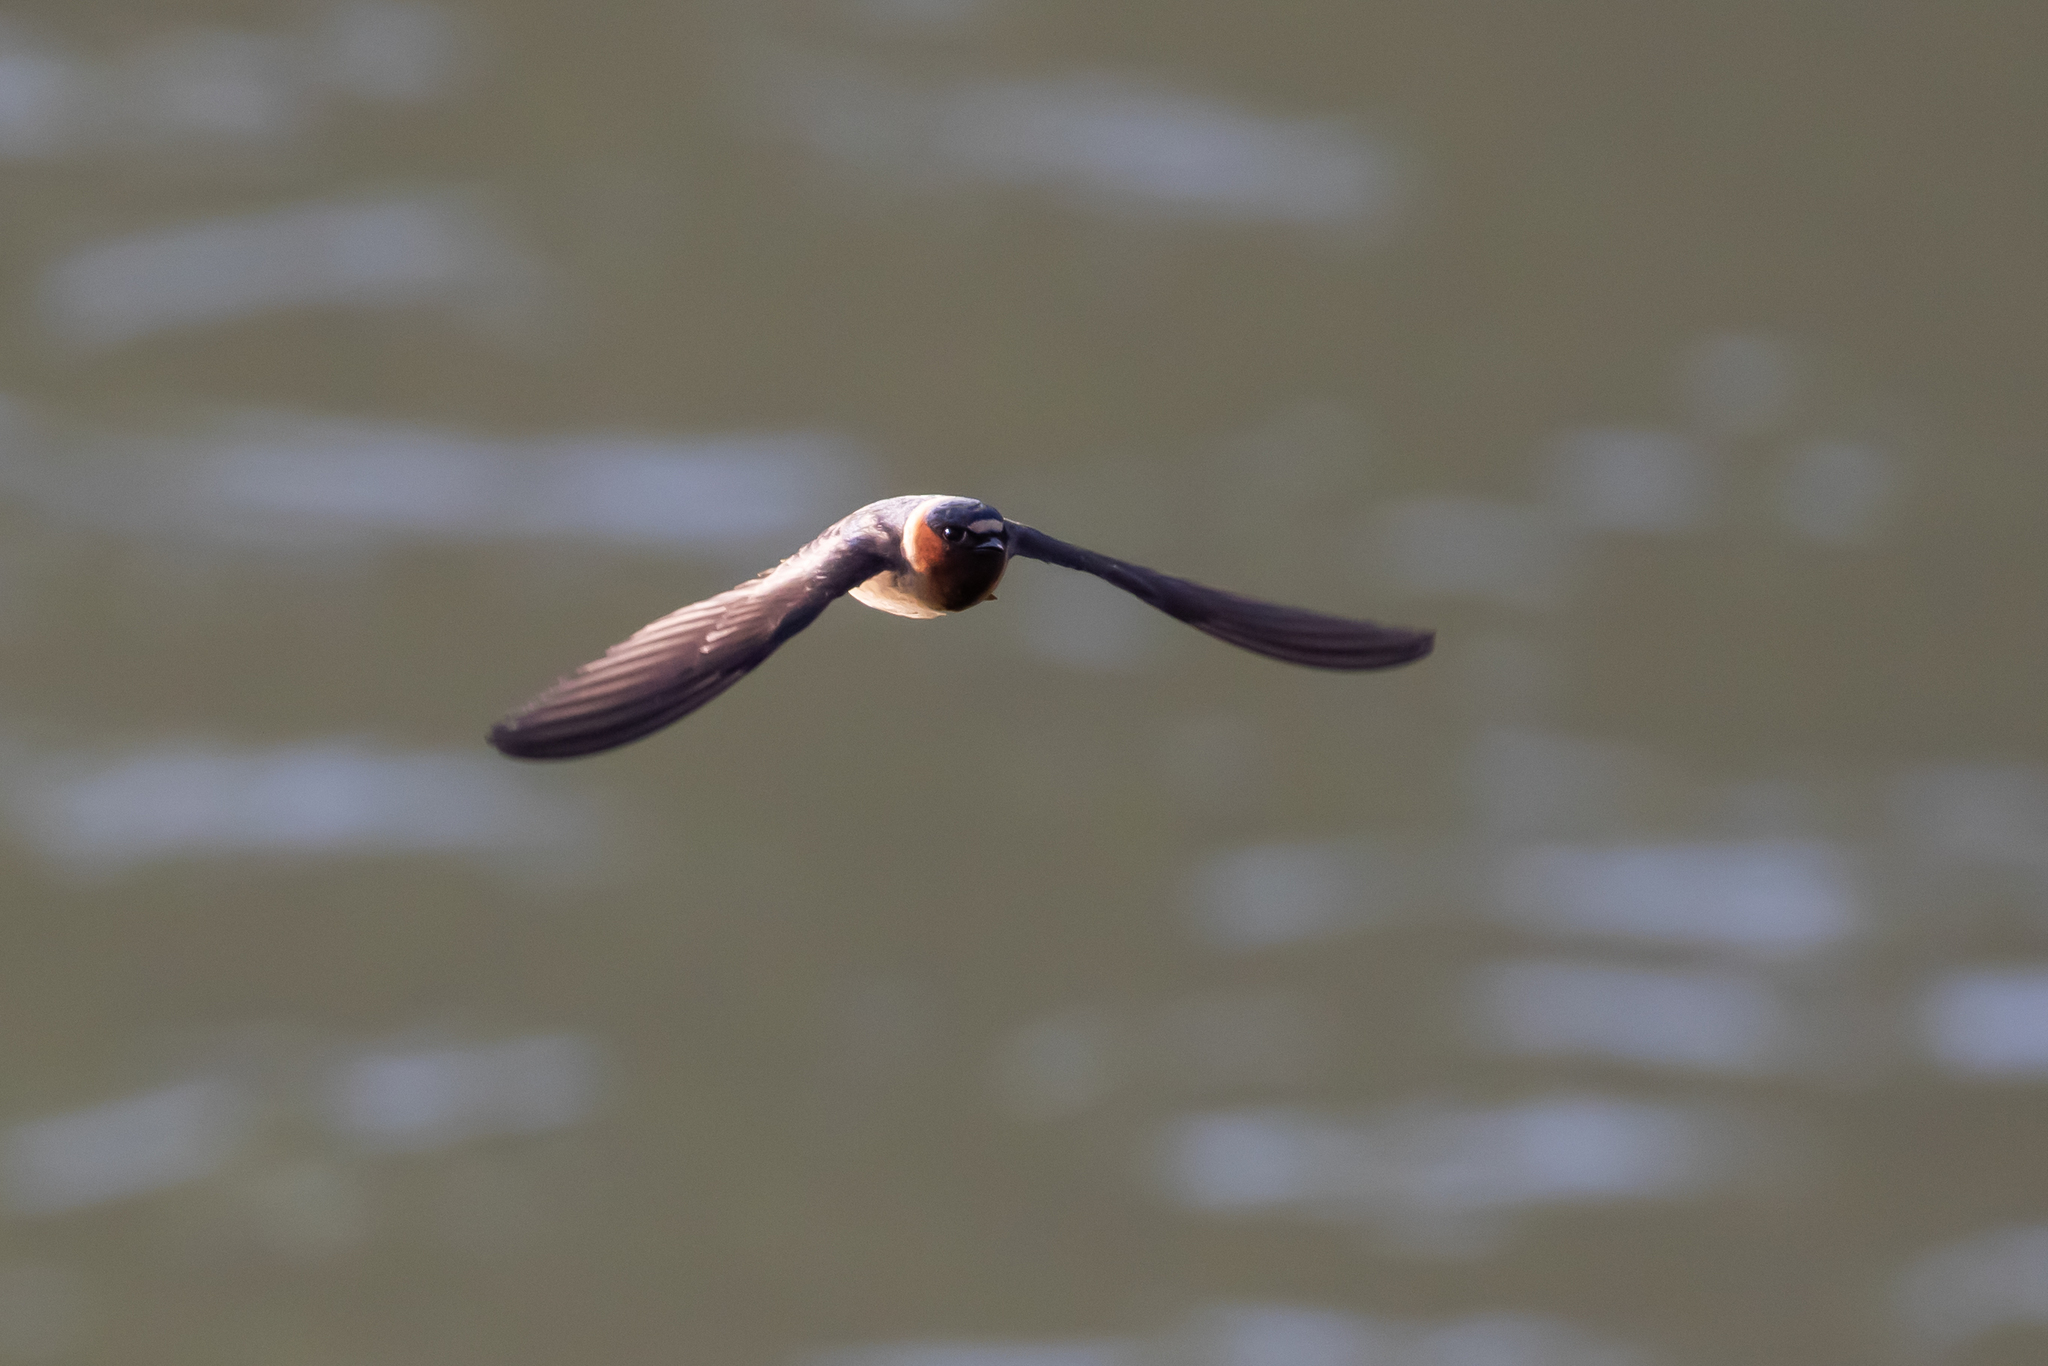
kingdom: Animalia
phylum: Chordata
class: Aves
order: Passeriformes
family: Hirundinidae
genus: Petrochelidon
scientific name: Petrochelidon pyrrhonota
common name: American cliff swallow
